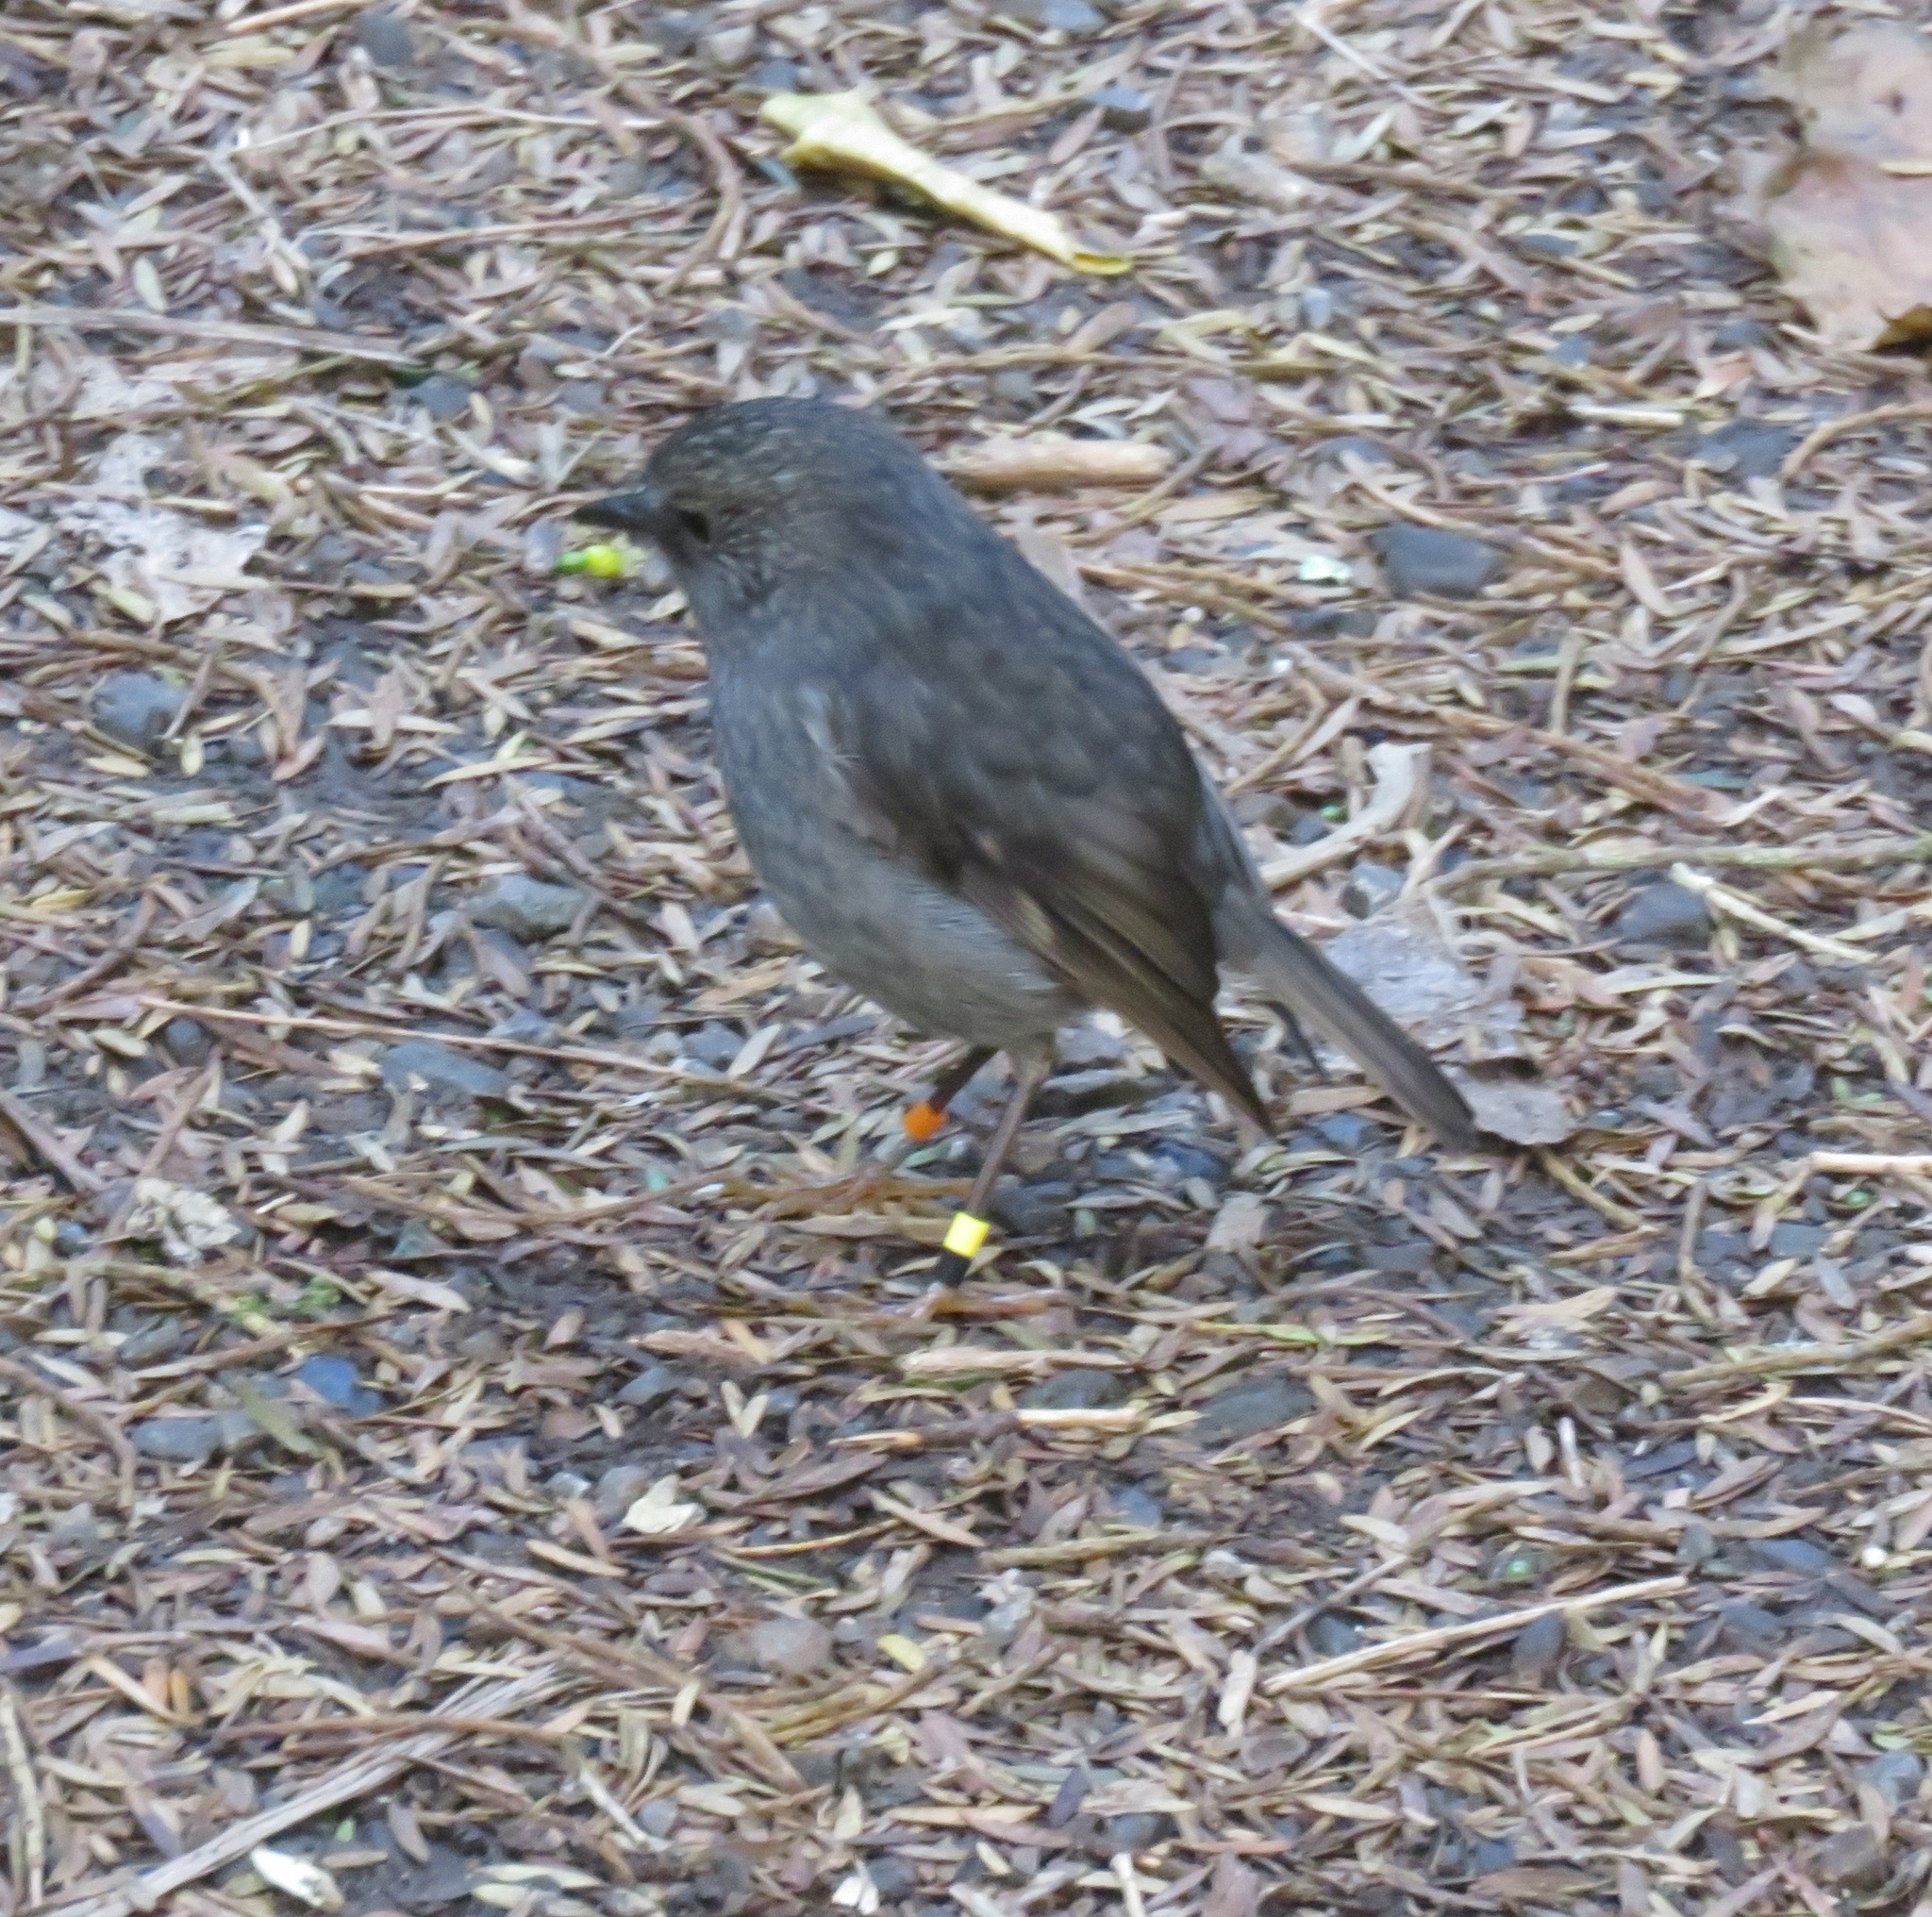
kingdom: Animalia
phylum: Chordata
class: Aves
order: Passeriformes
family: Petroicidae
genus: Petroica
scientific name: Petroica australis
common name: New zealand robin
